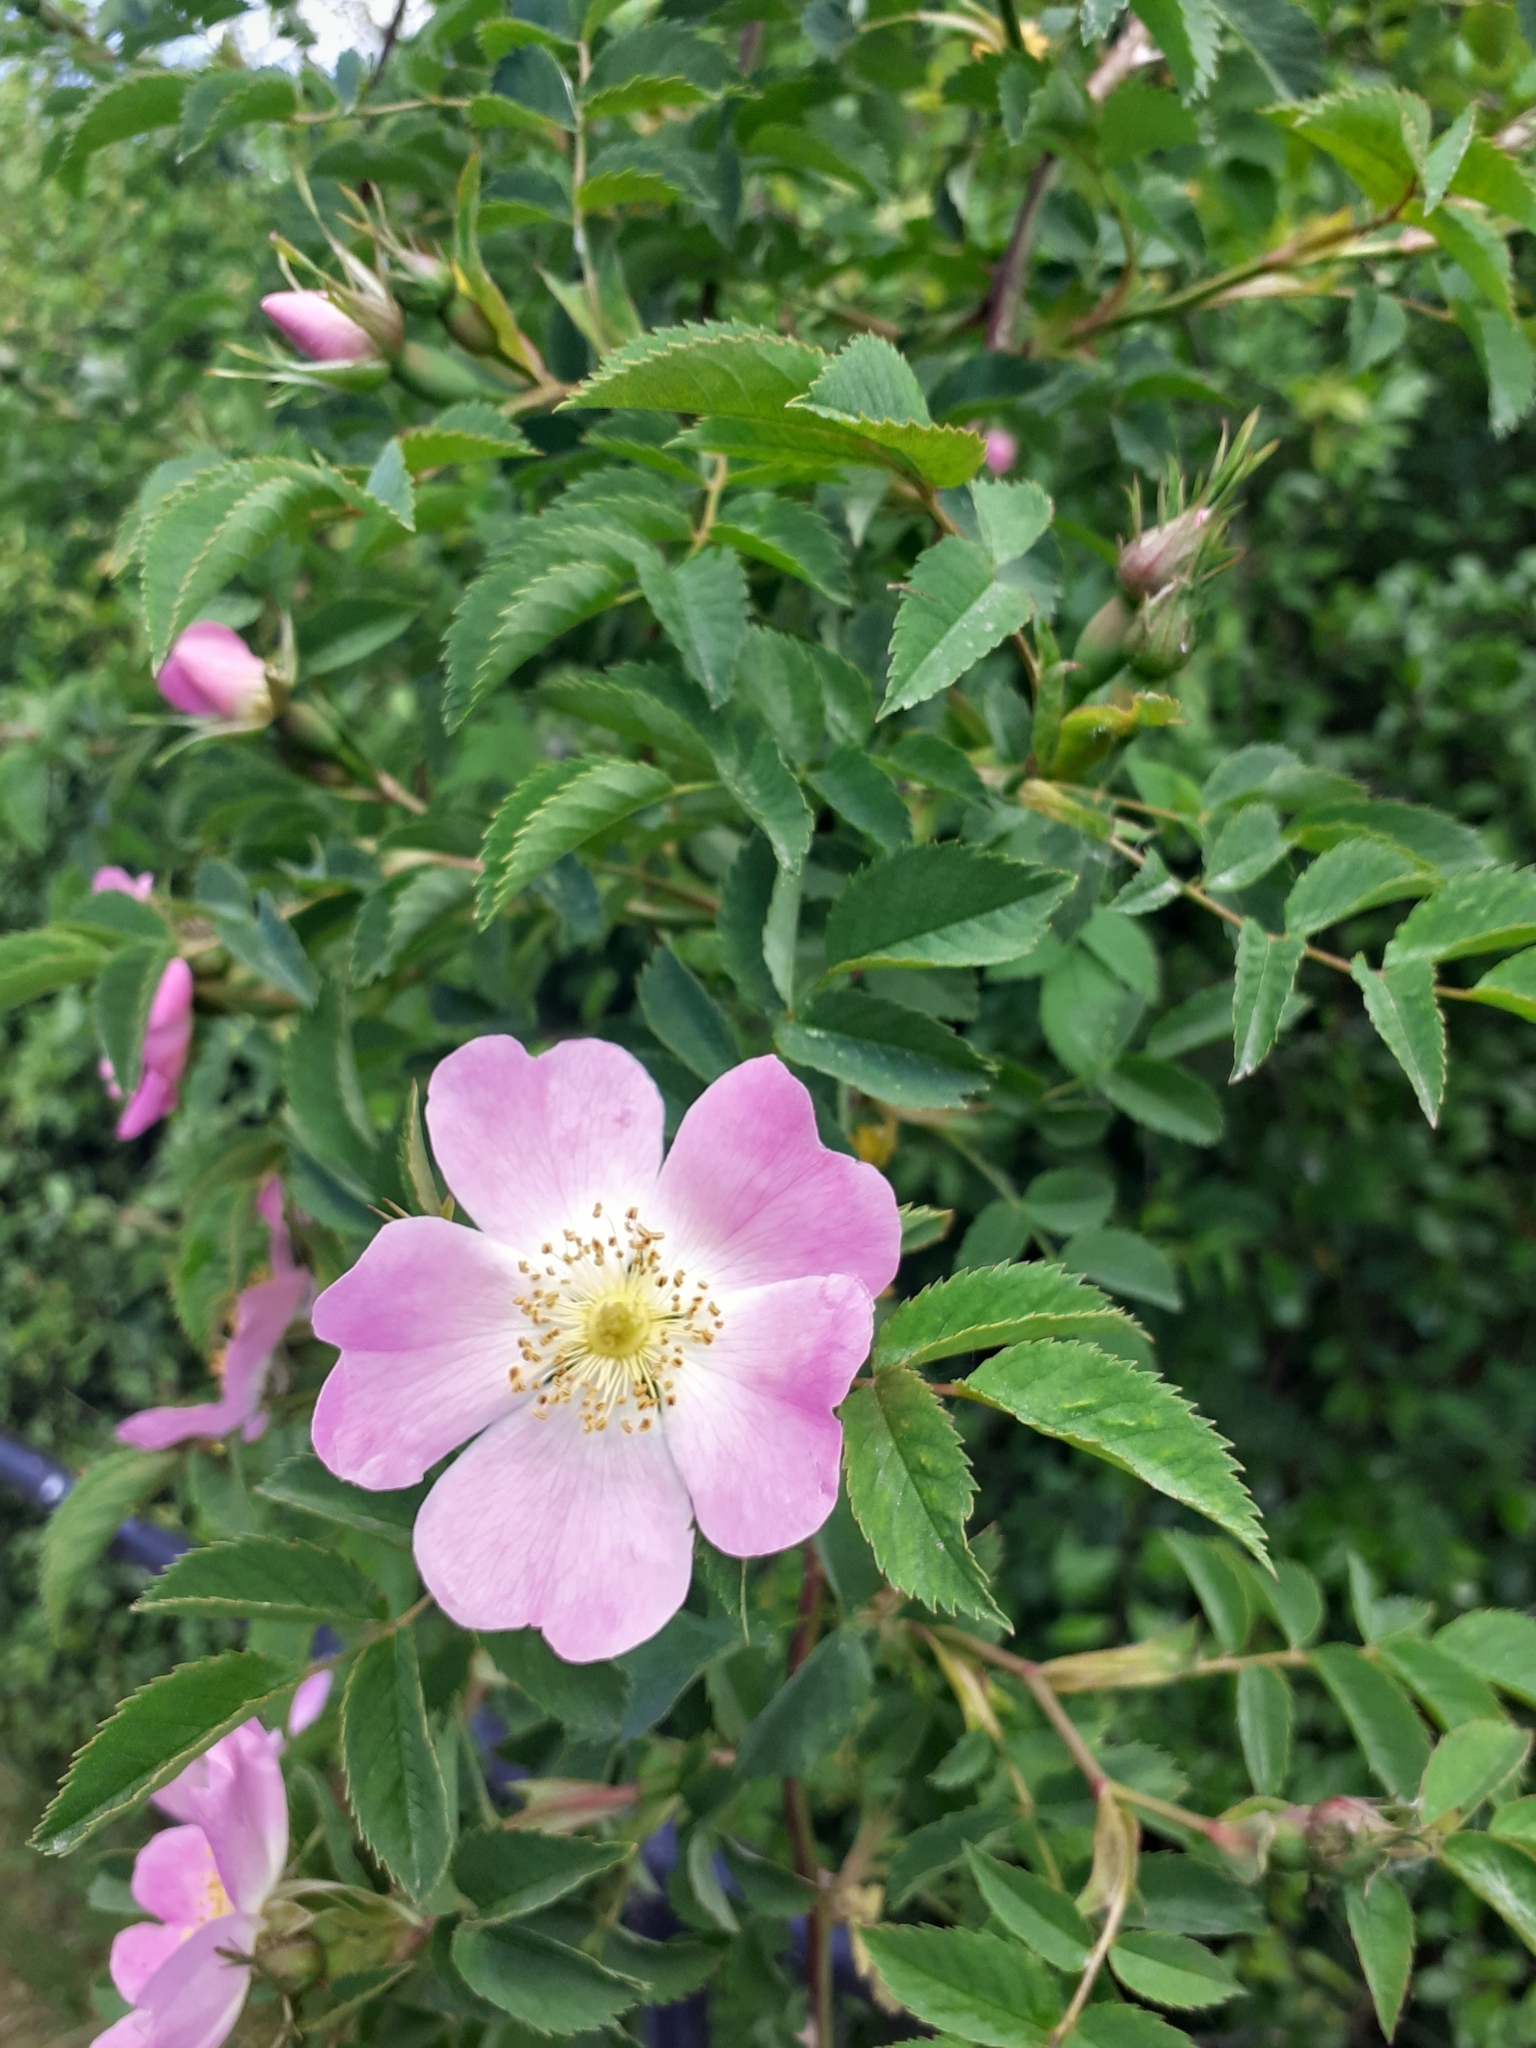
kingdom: Plantae
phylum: Tracheophyta
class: Magnoliopsida
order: Rosales
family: Rosaceae
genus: Rosa
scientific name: Rosa canina
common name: Dog rose
